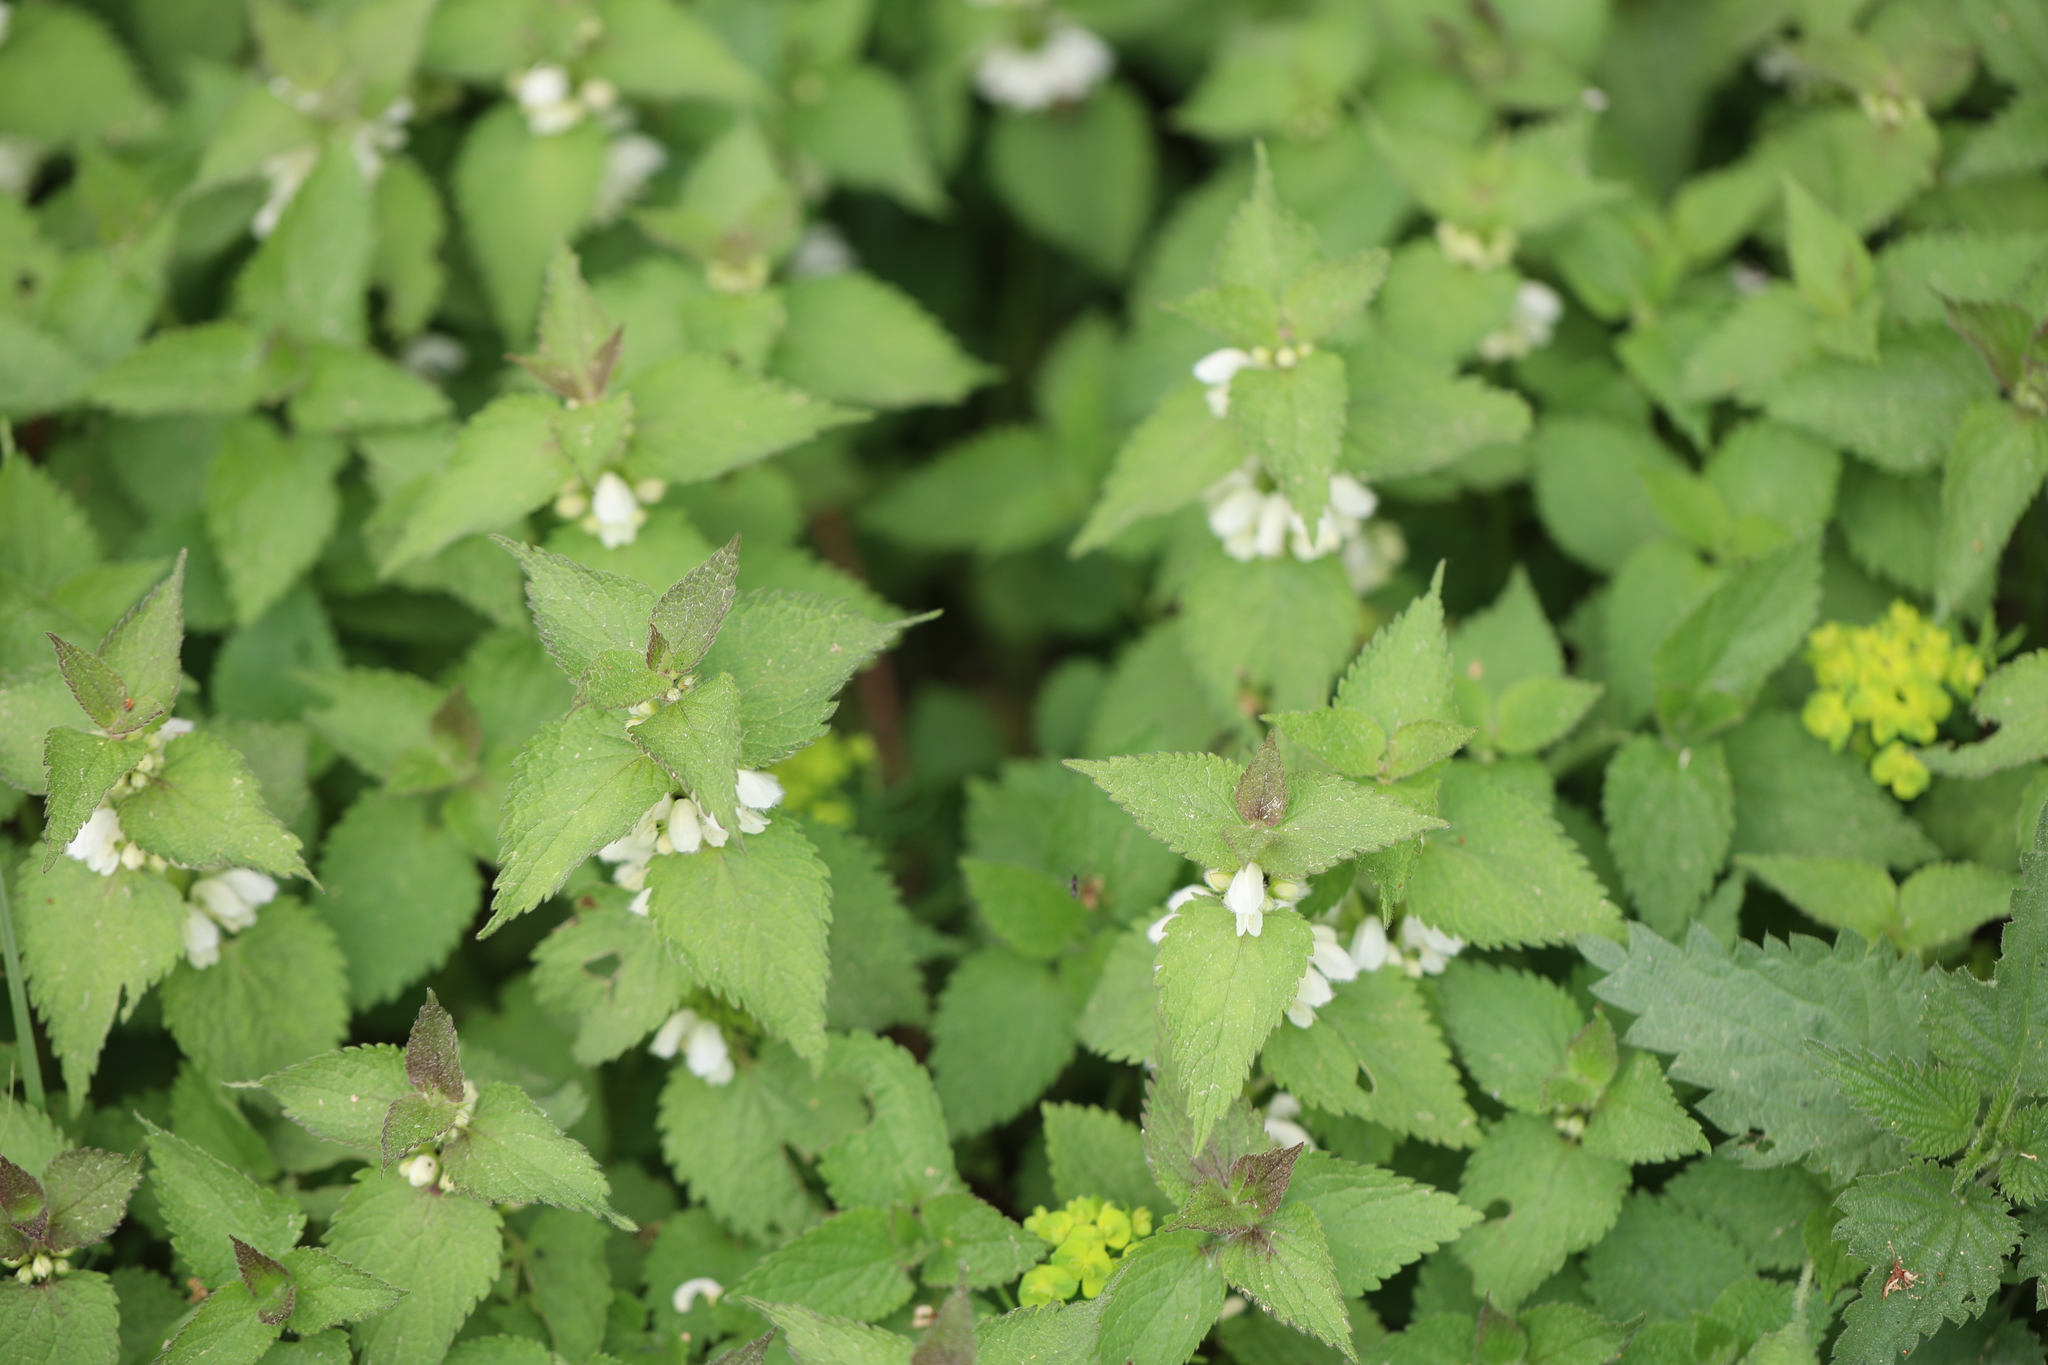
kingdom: Plantae
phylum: Tracheophyta
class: Magnoliopsida
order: Lamiales
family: Lamiaceae
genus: Lamium
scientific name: Lamium album
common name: White dead-nettle
